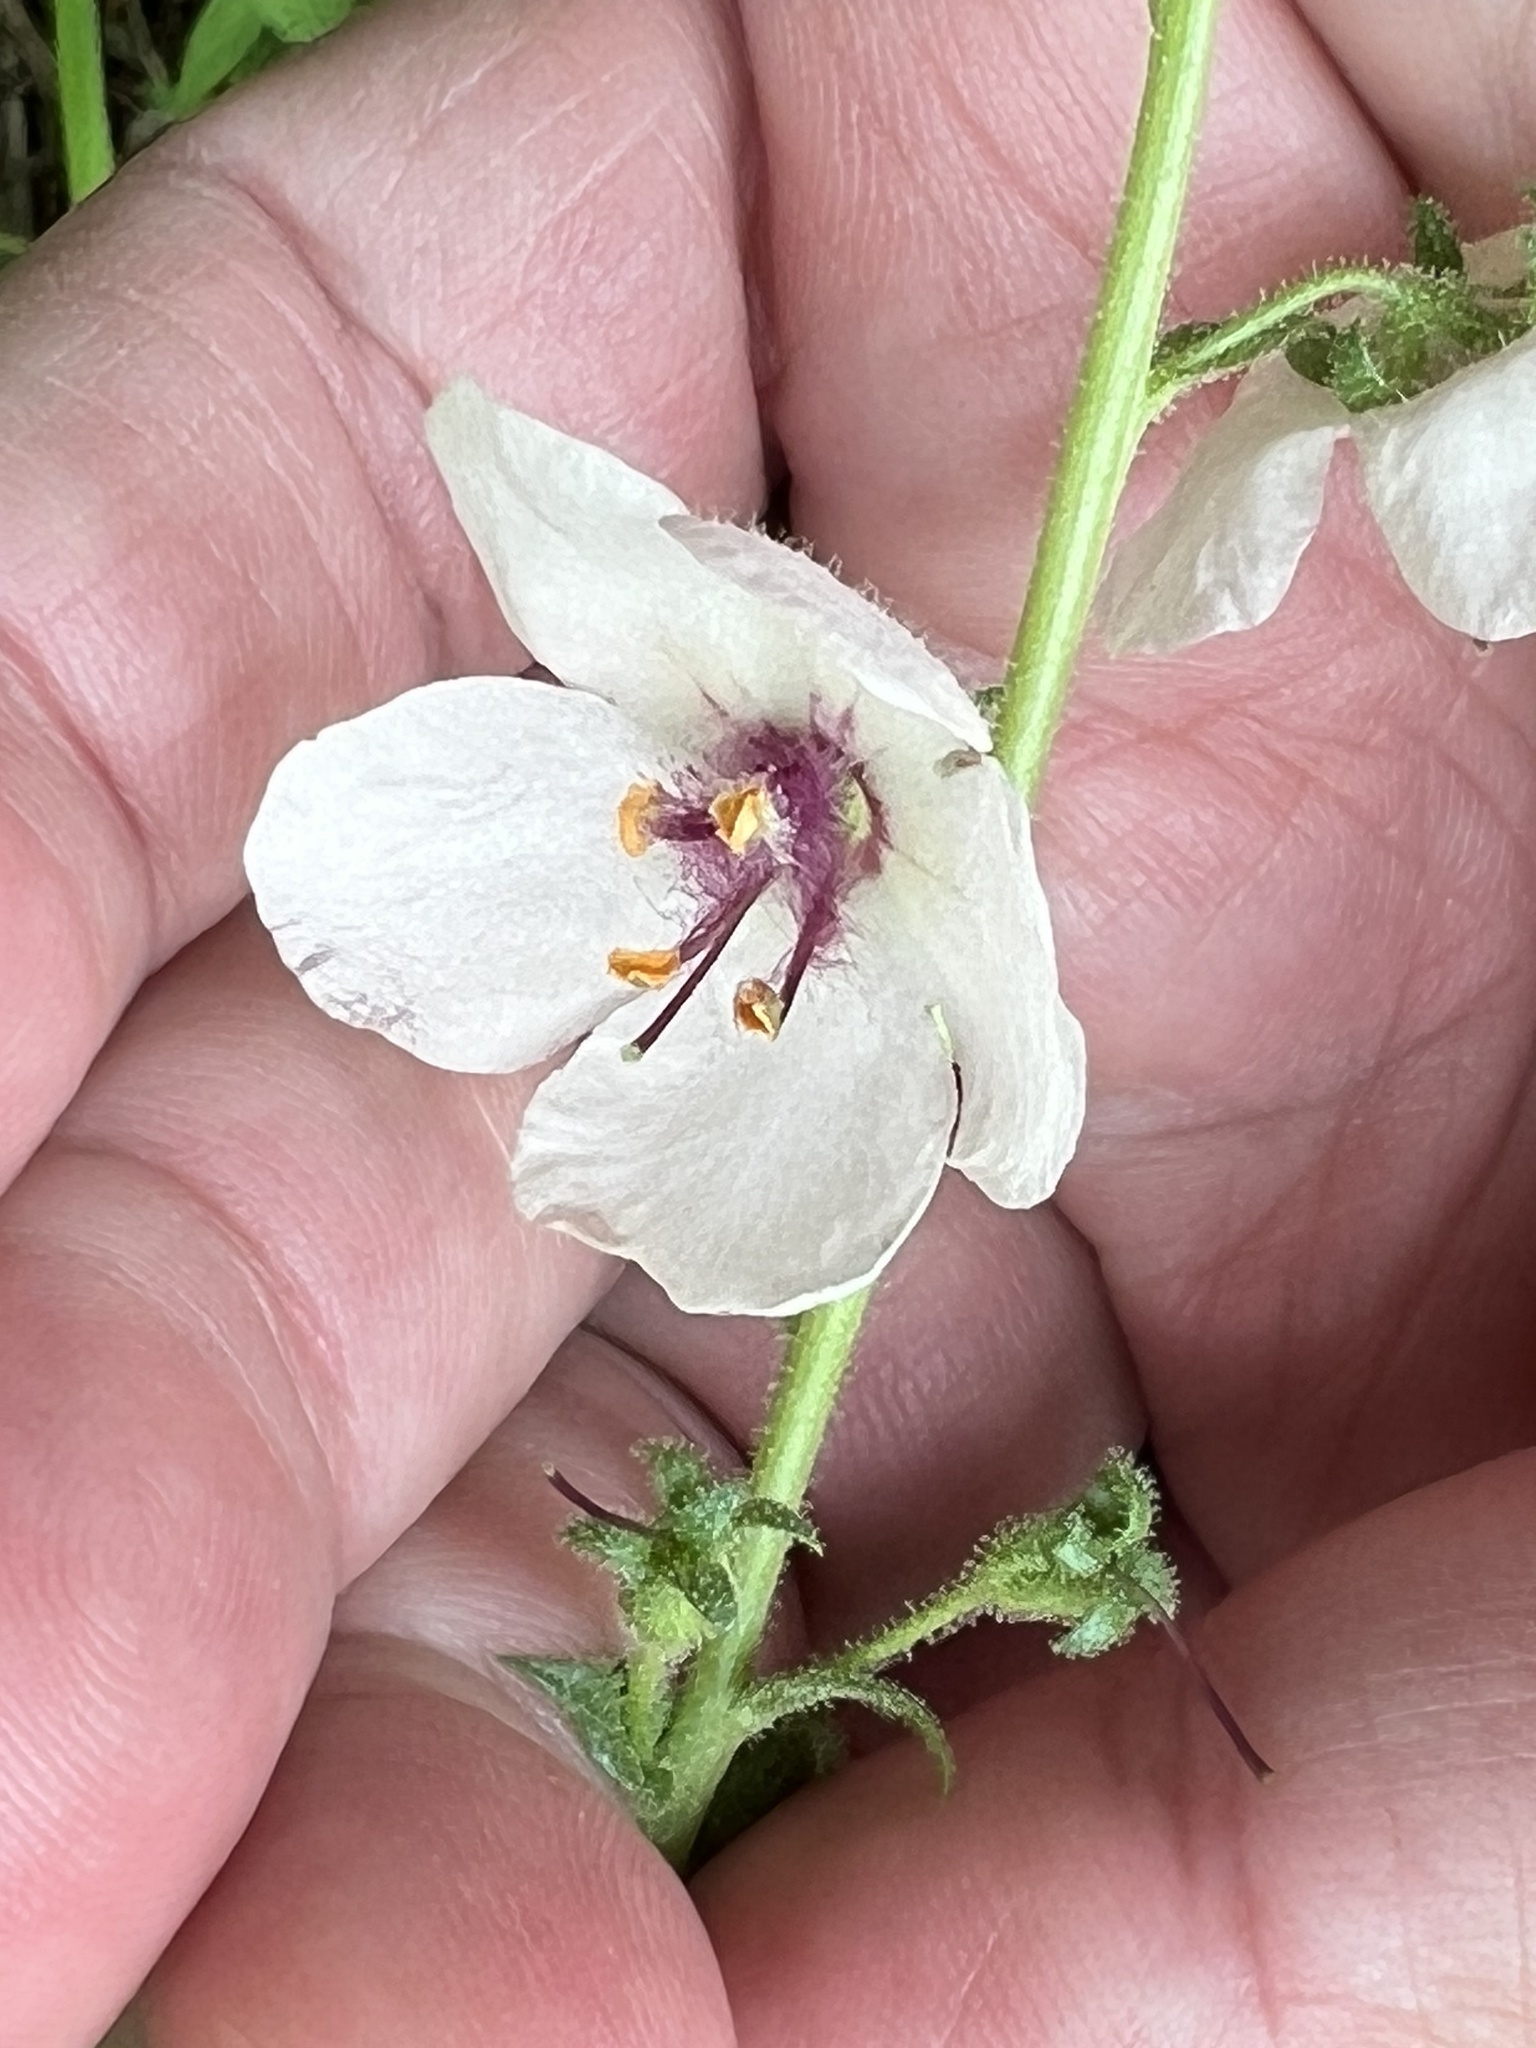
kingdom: Plantae
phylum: Tracheophyta
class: Magnoliopsida
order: Lamiales
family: Scrophulariaceae
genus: Verbascum
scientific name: Verbascum blattaria
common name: Moth mullein
